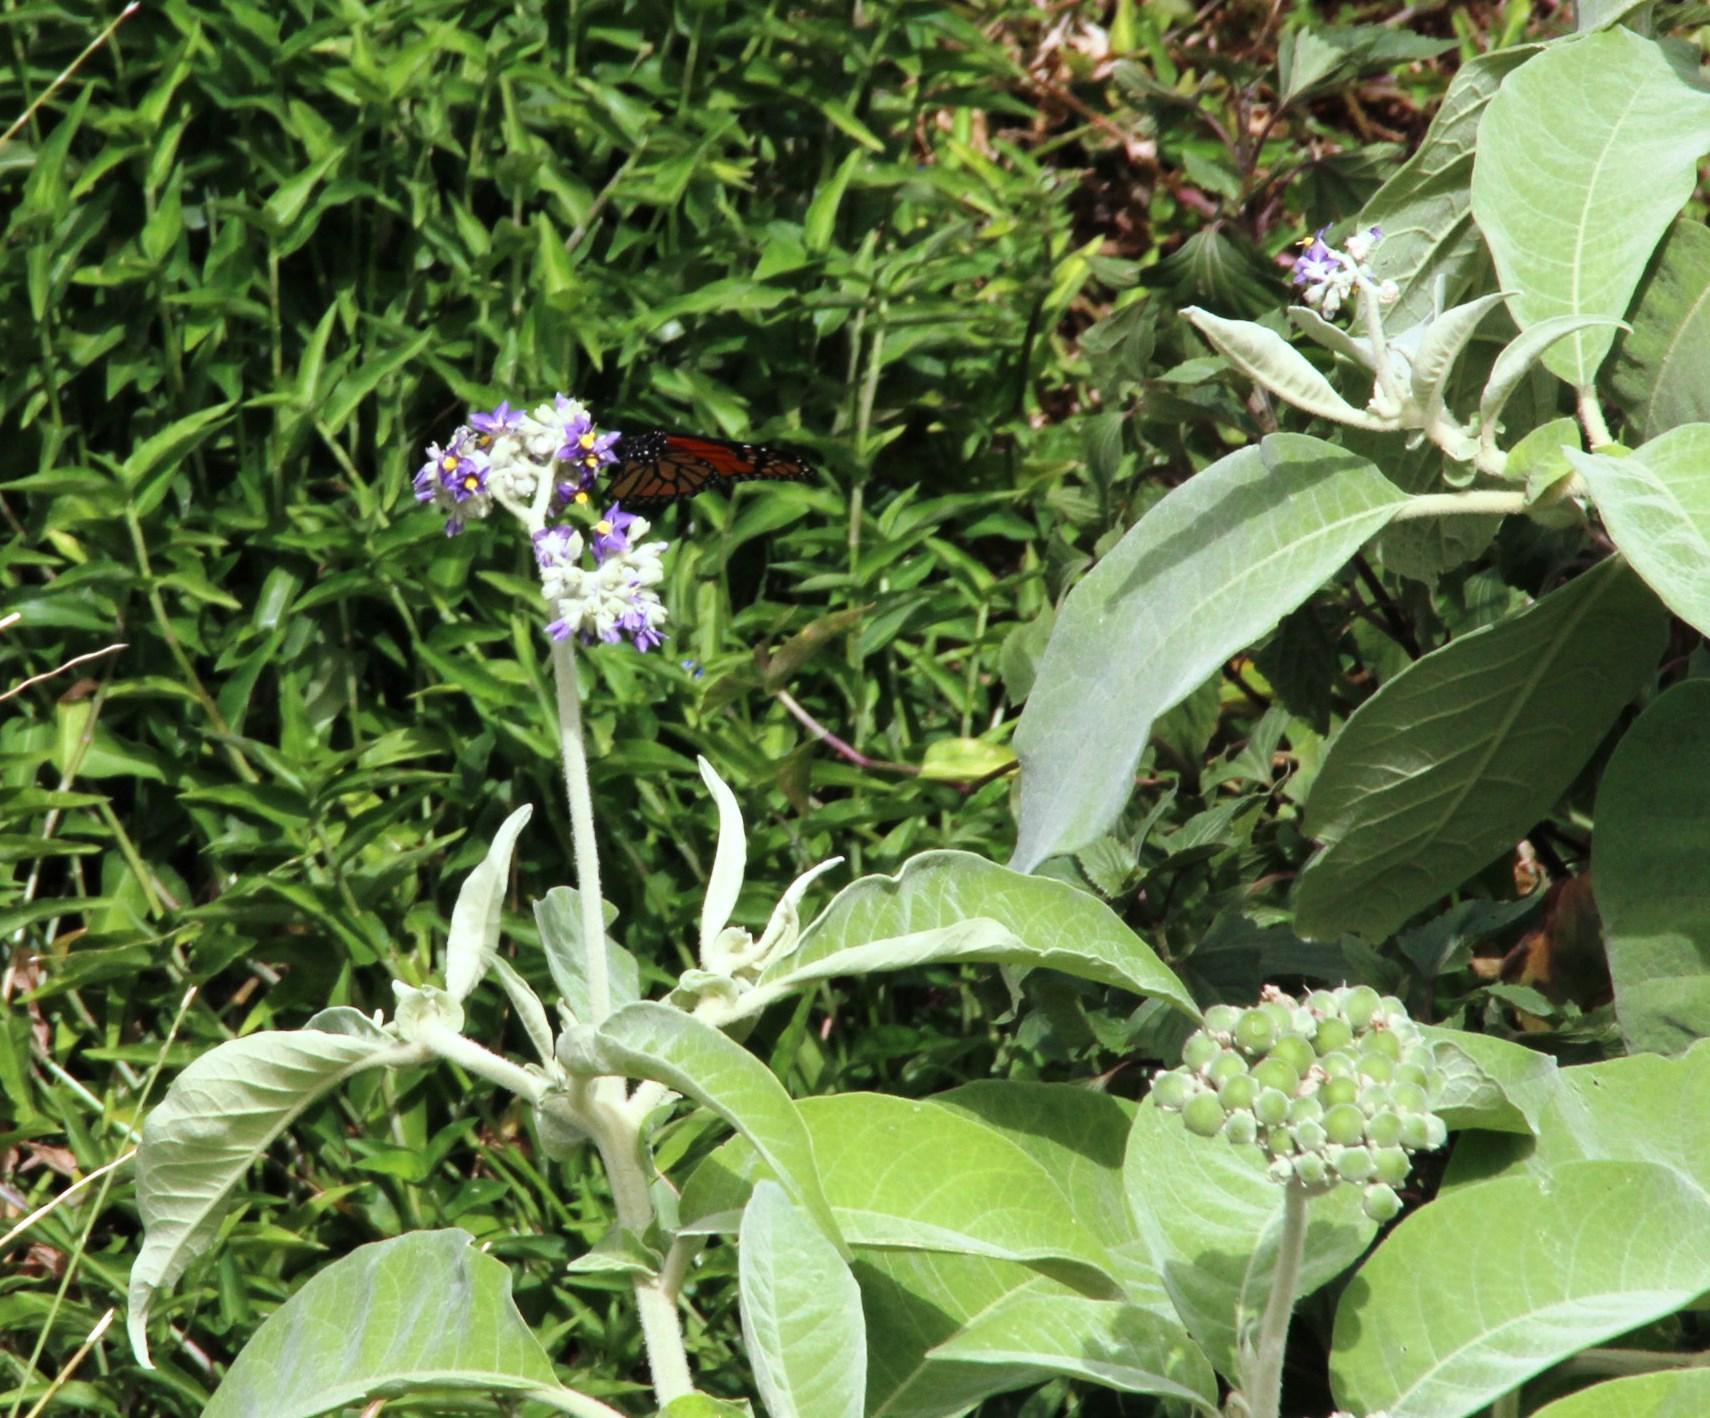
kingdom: Plantae
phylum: Tracheophyta
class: Magnoliopsida
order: Solanales
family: Solanaceae
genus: Solanum
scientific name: Solanum mauritianum
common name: Earleaf nightshade
